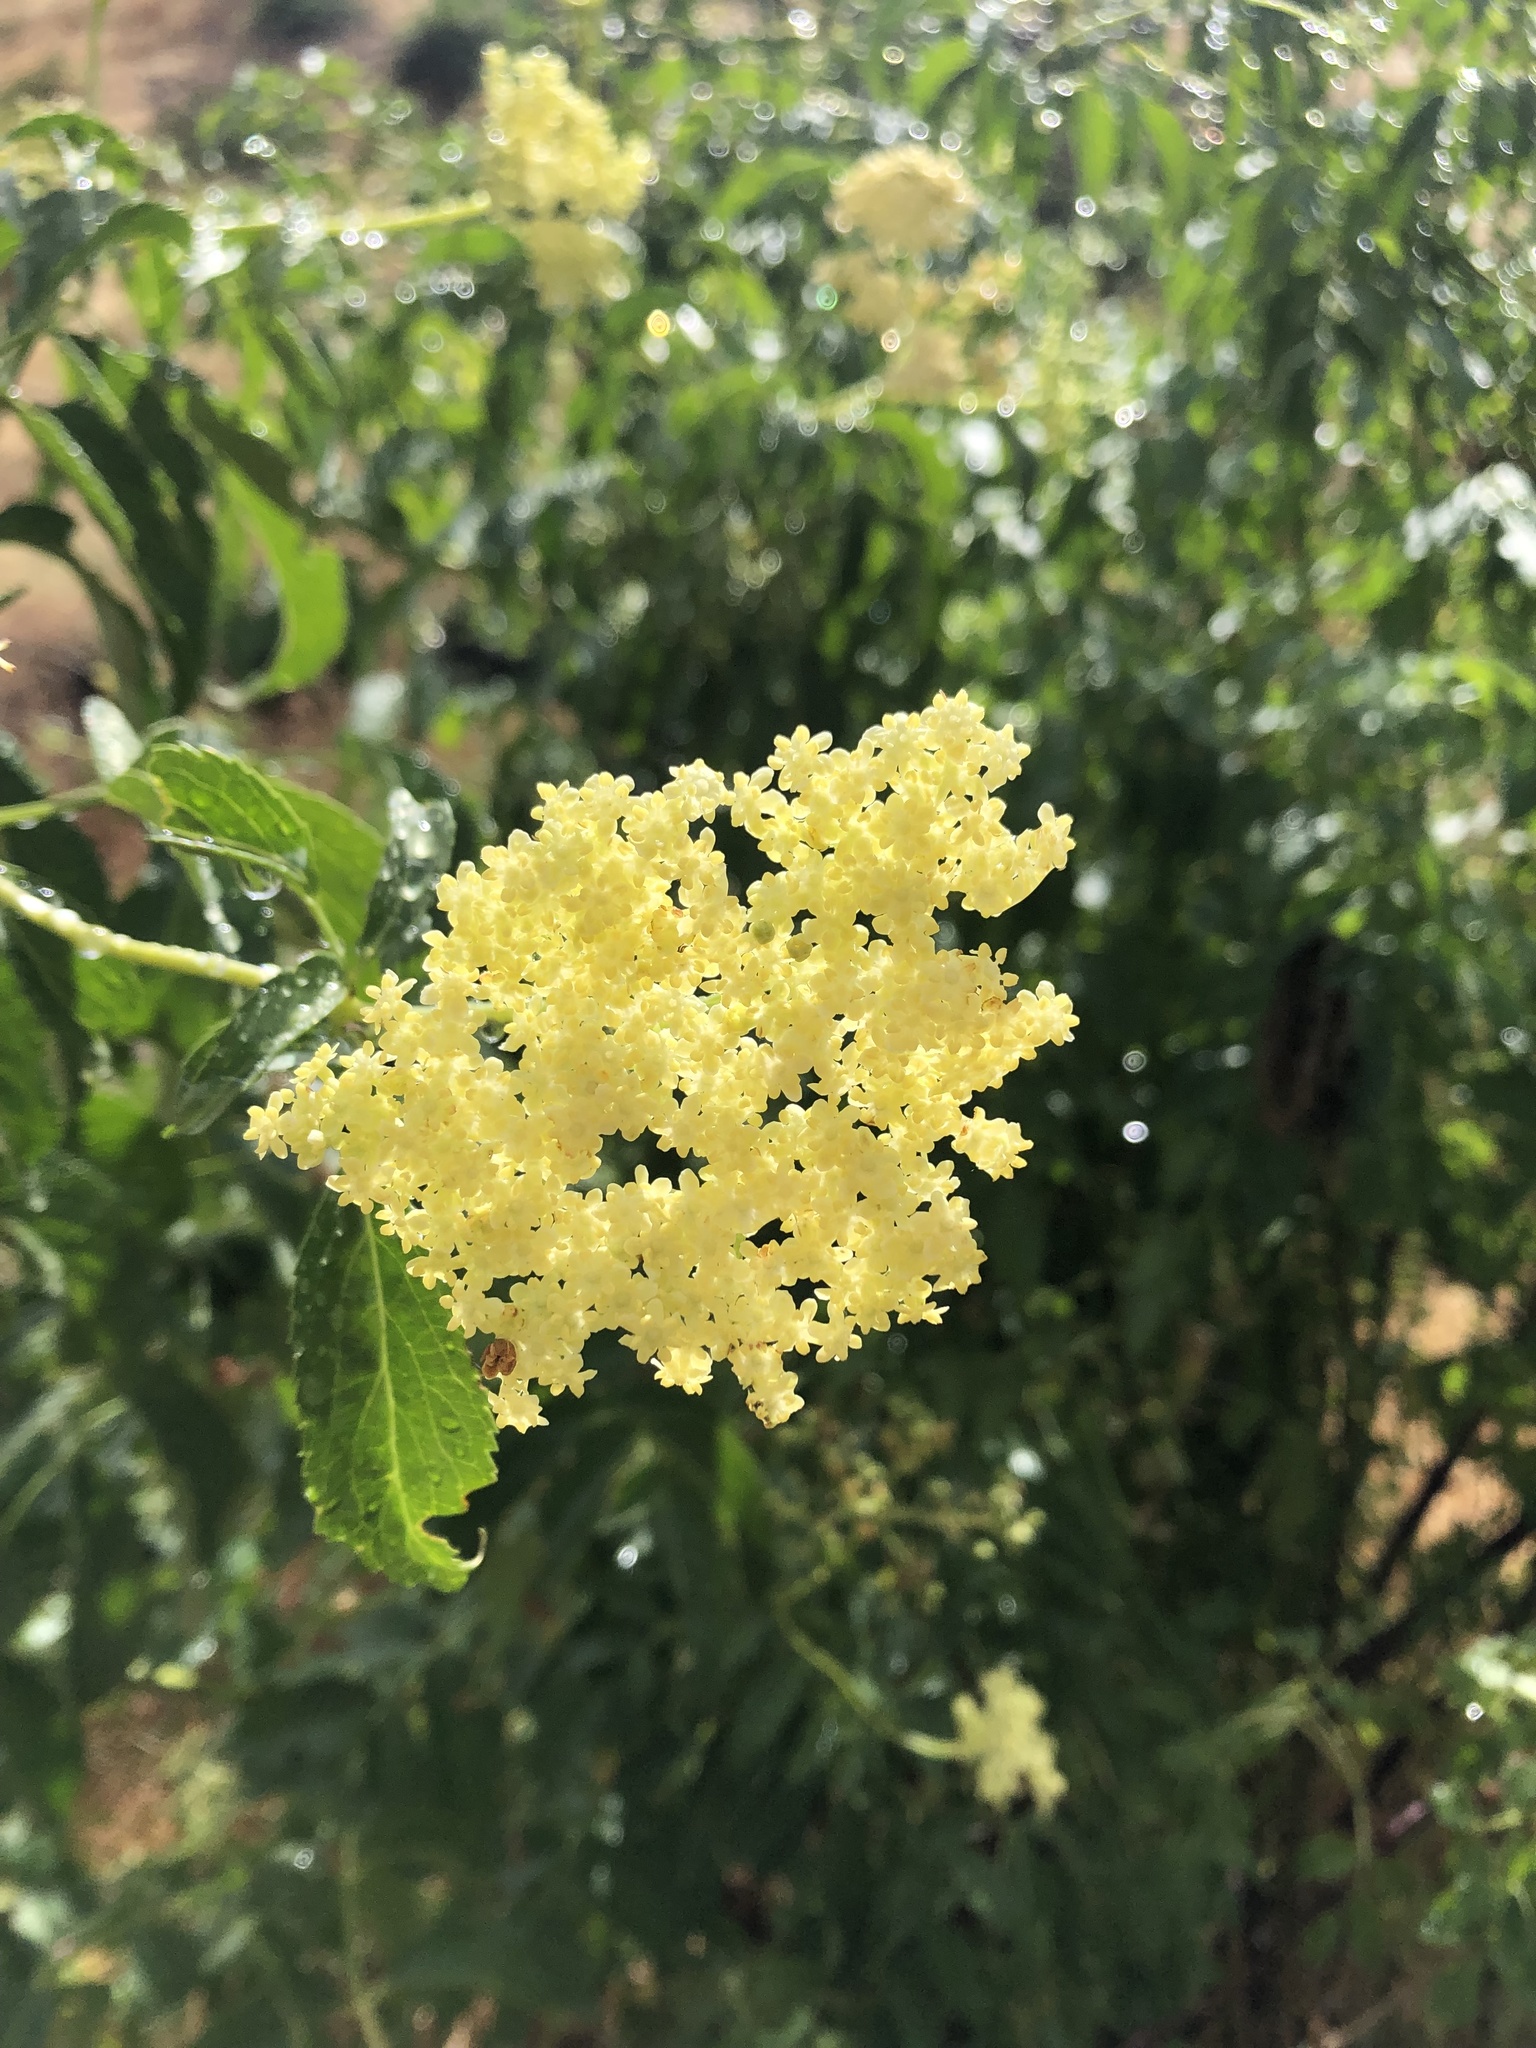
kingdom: Plantae
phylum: Tracheophyta
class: Magnoliopsida
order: Dipsacales
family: Viburnaceae
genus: Sambucus
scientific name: Sambucus cerulea
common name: Blue elder
